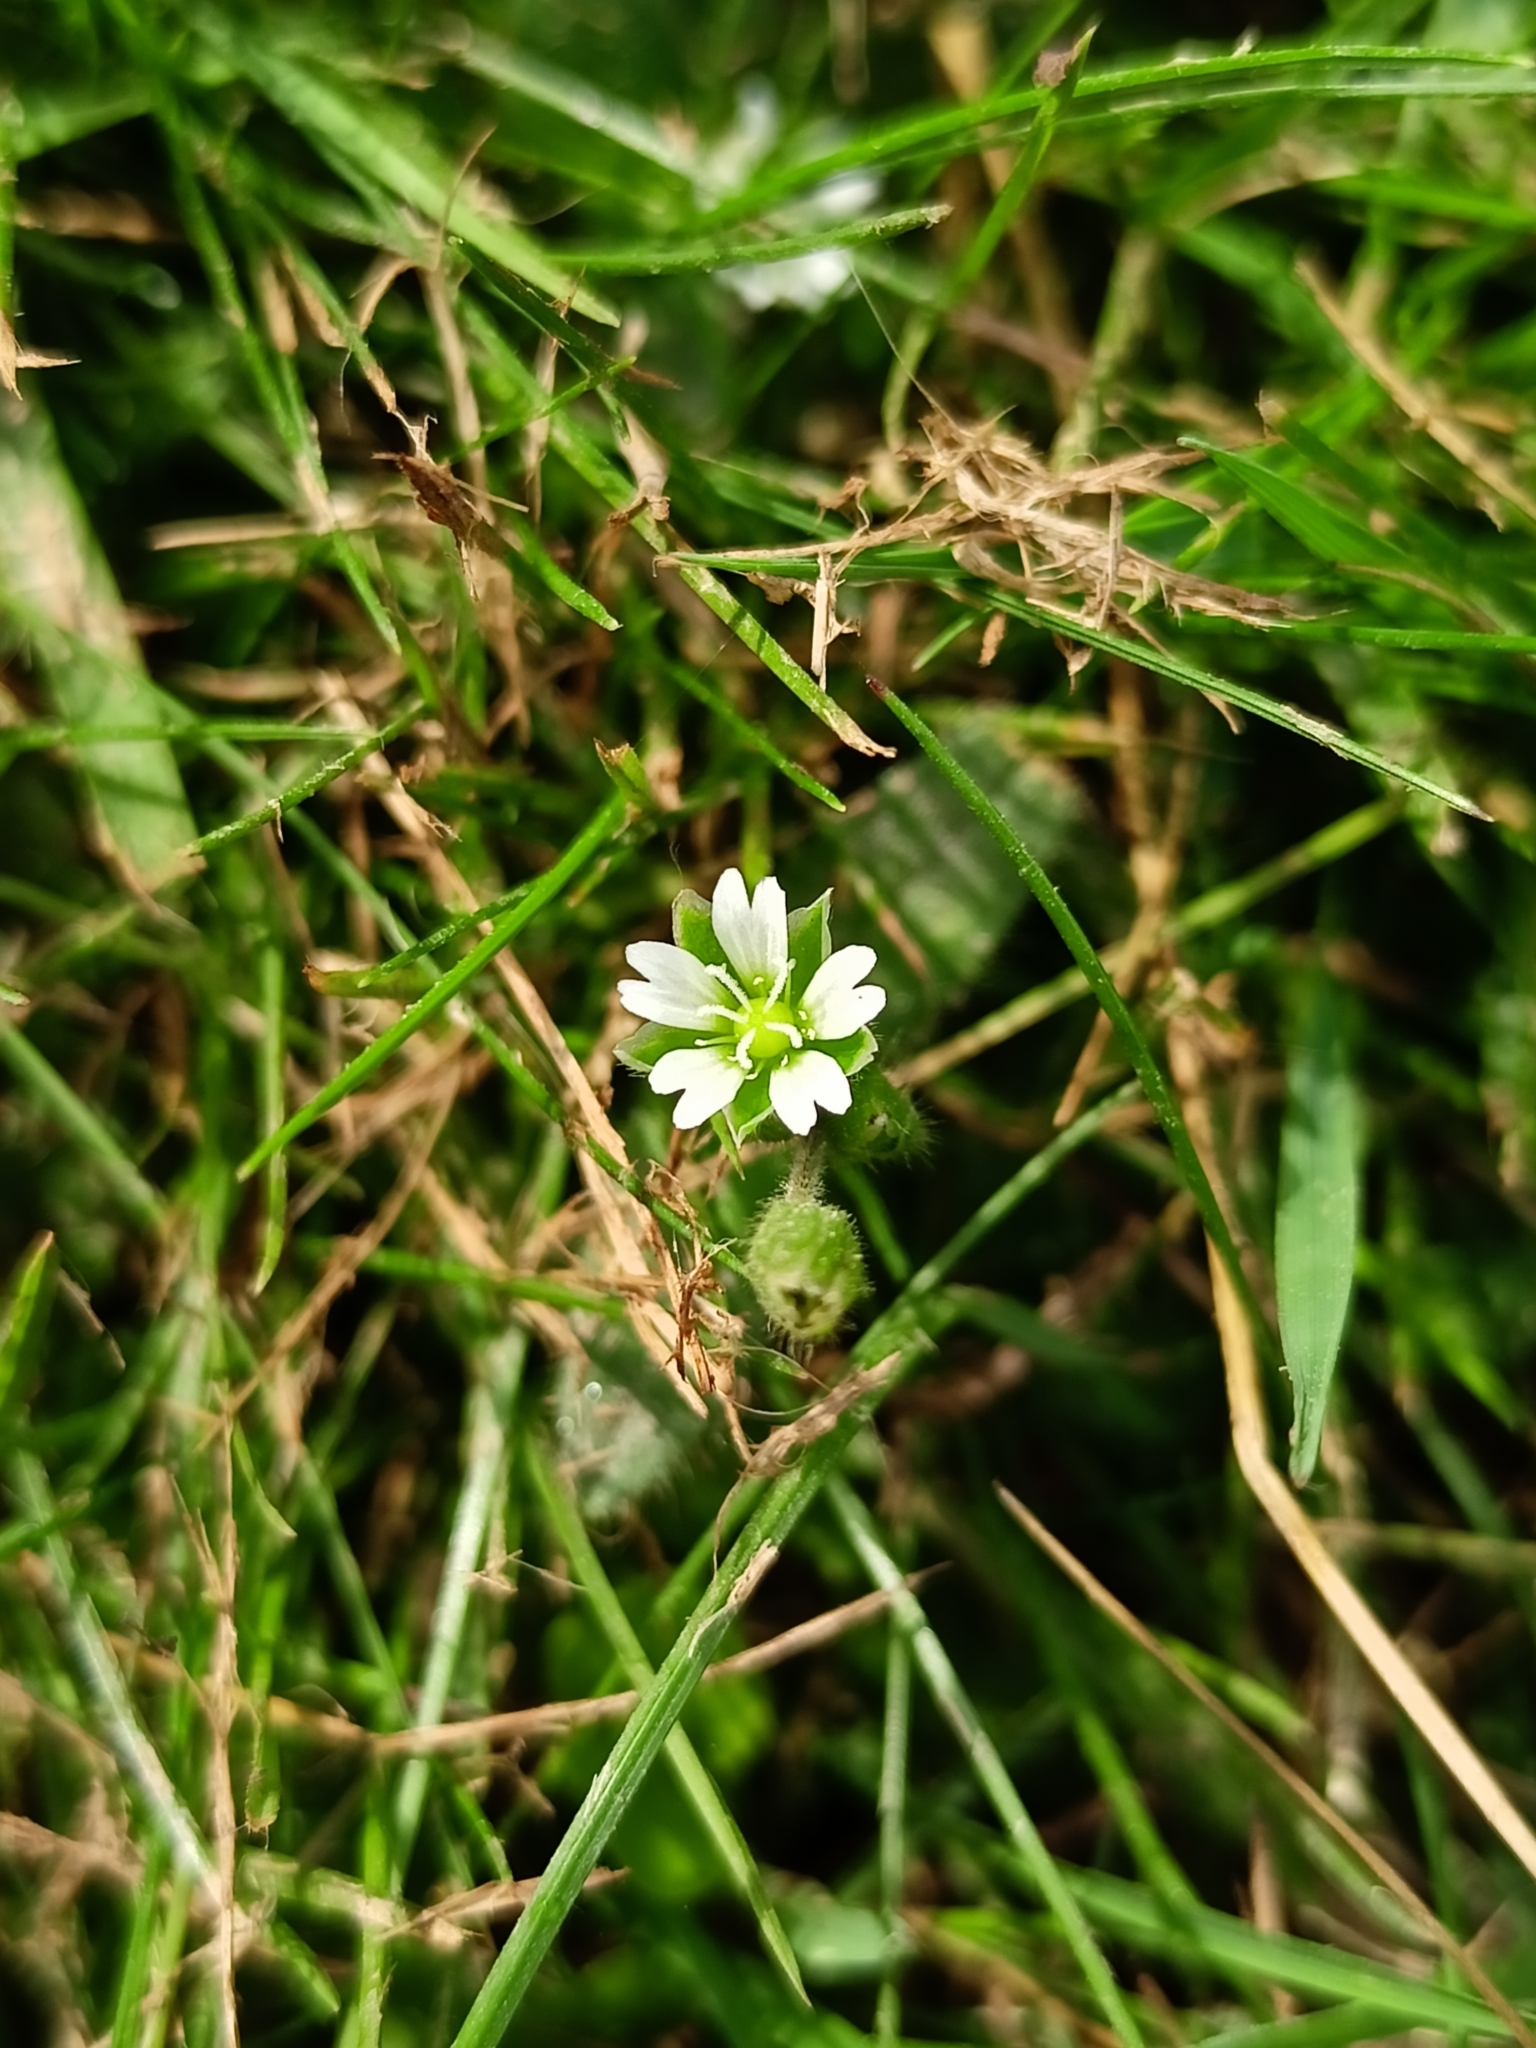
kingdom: Plantae
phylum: Tracheophyta
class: Magnoliopsida
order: Caryophyllales
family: Caryophyllaceae
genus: Cerastium
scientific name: Cerastium holosteoides
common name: Big chickweed
